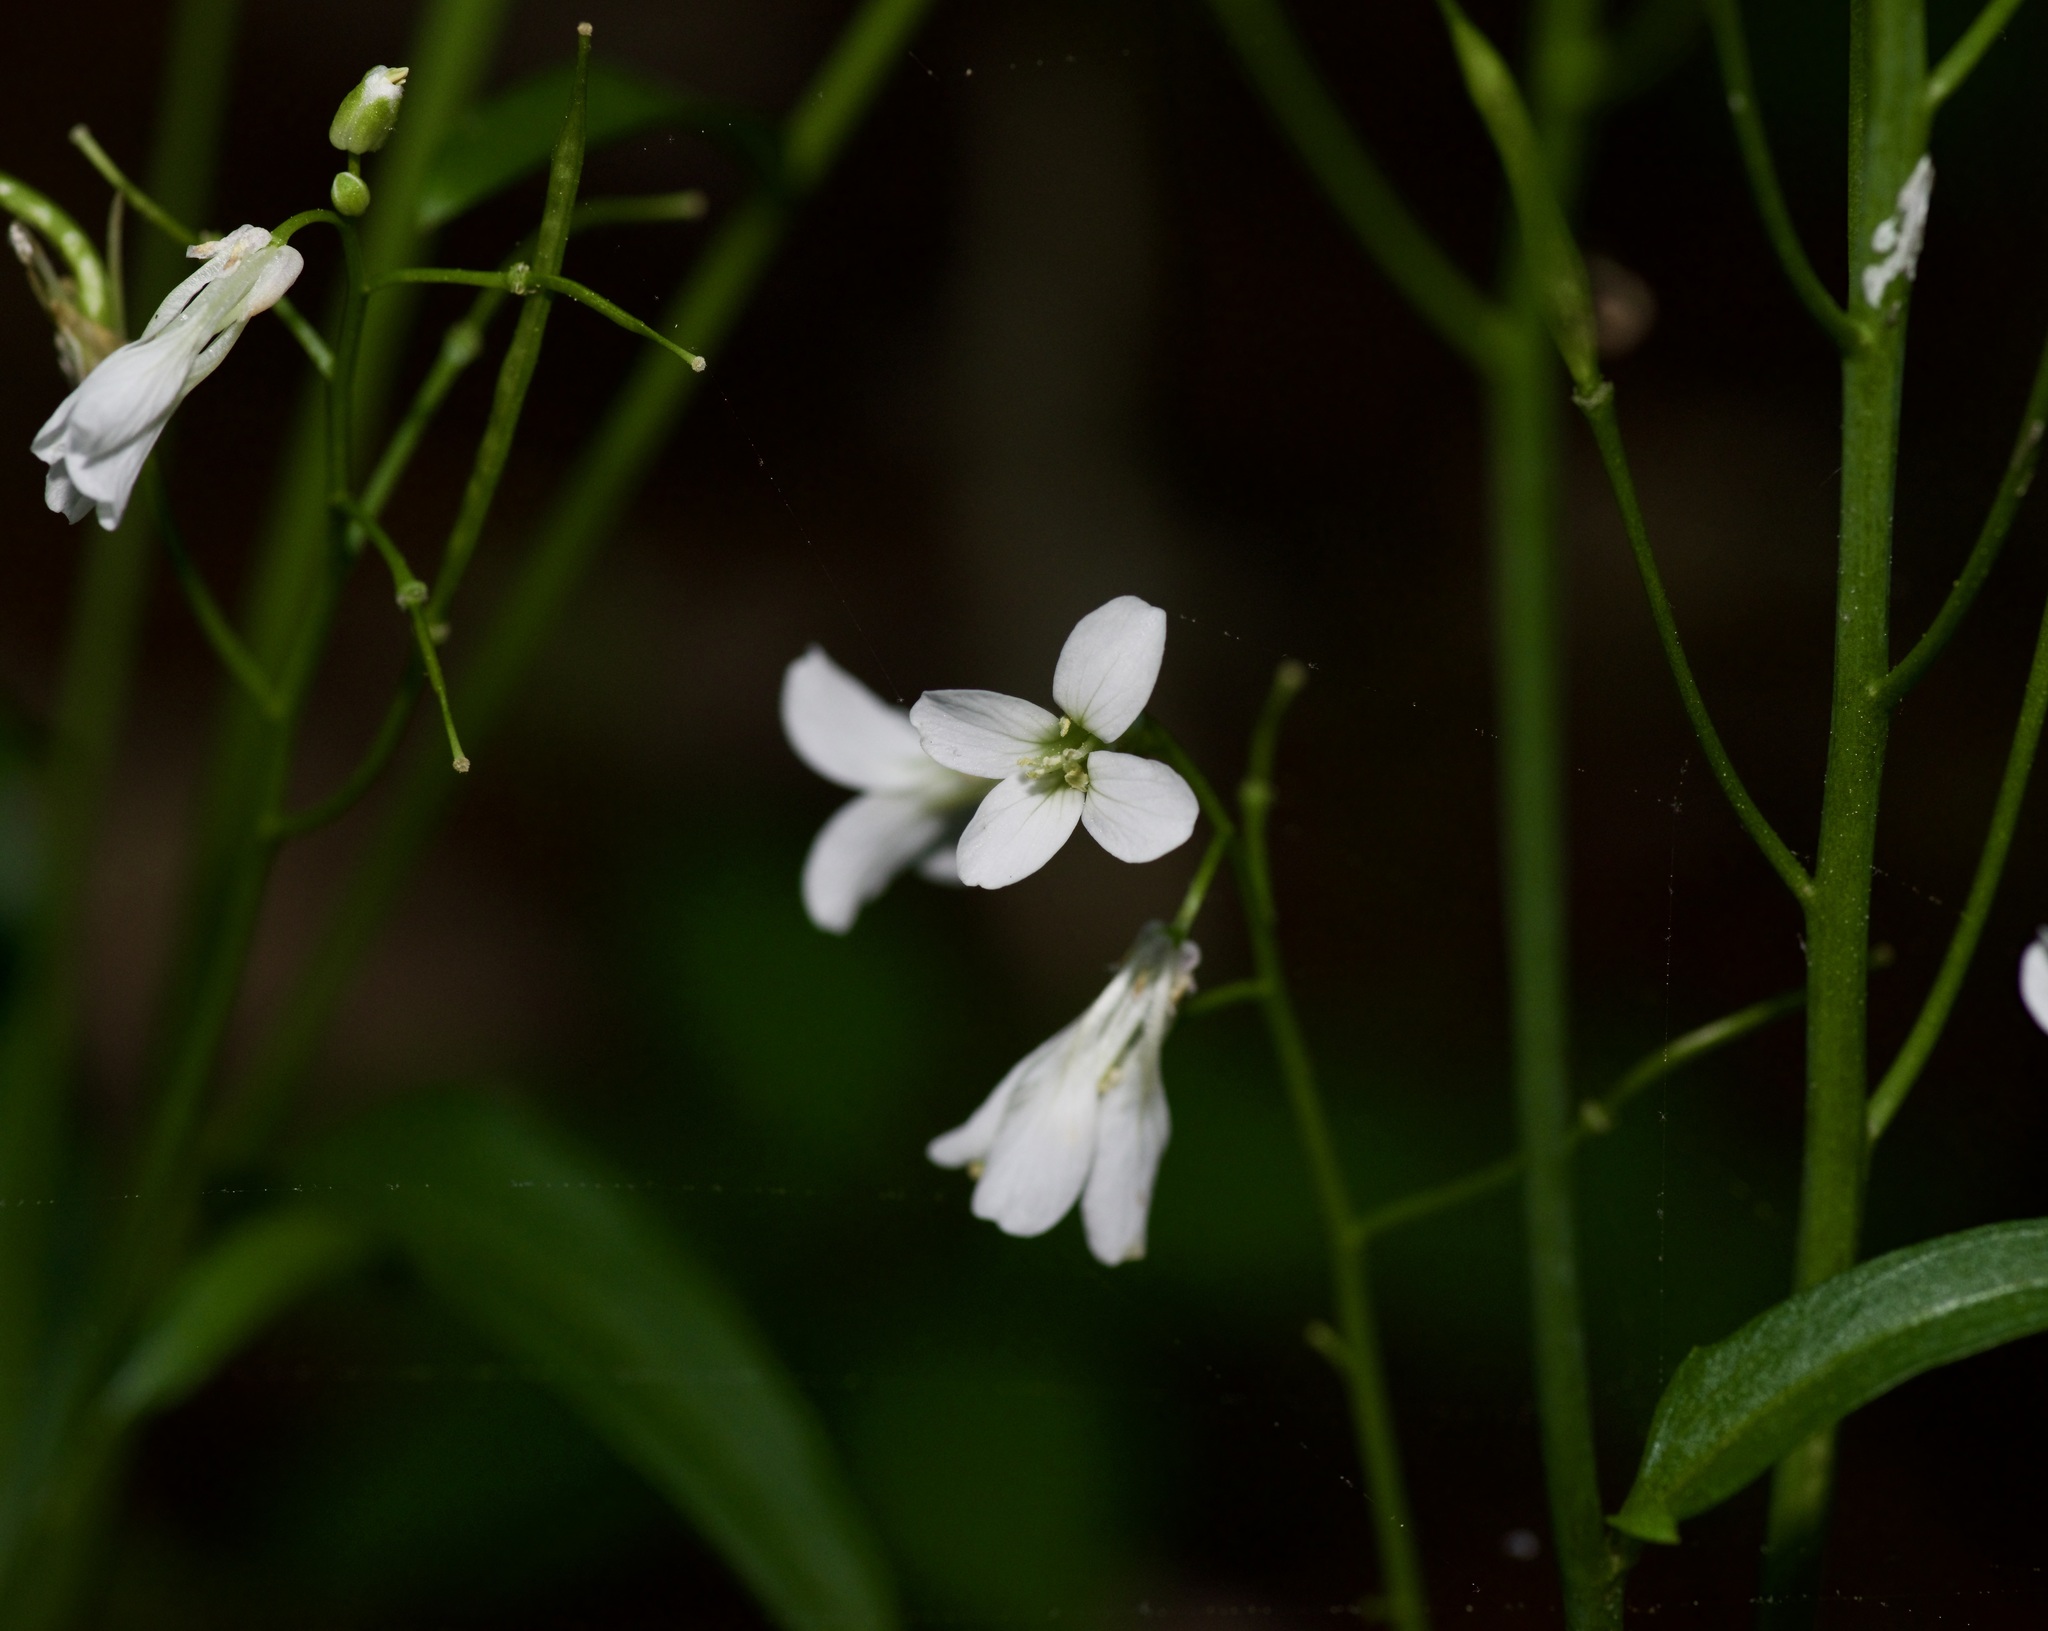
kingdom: Plantae
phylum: Tracheophyta
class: Magnoliopsida
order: Brassicales
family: Brassicaceae
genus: Cardamine
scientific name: Cardamine bulbosa
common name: Spring cress
